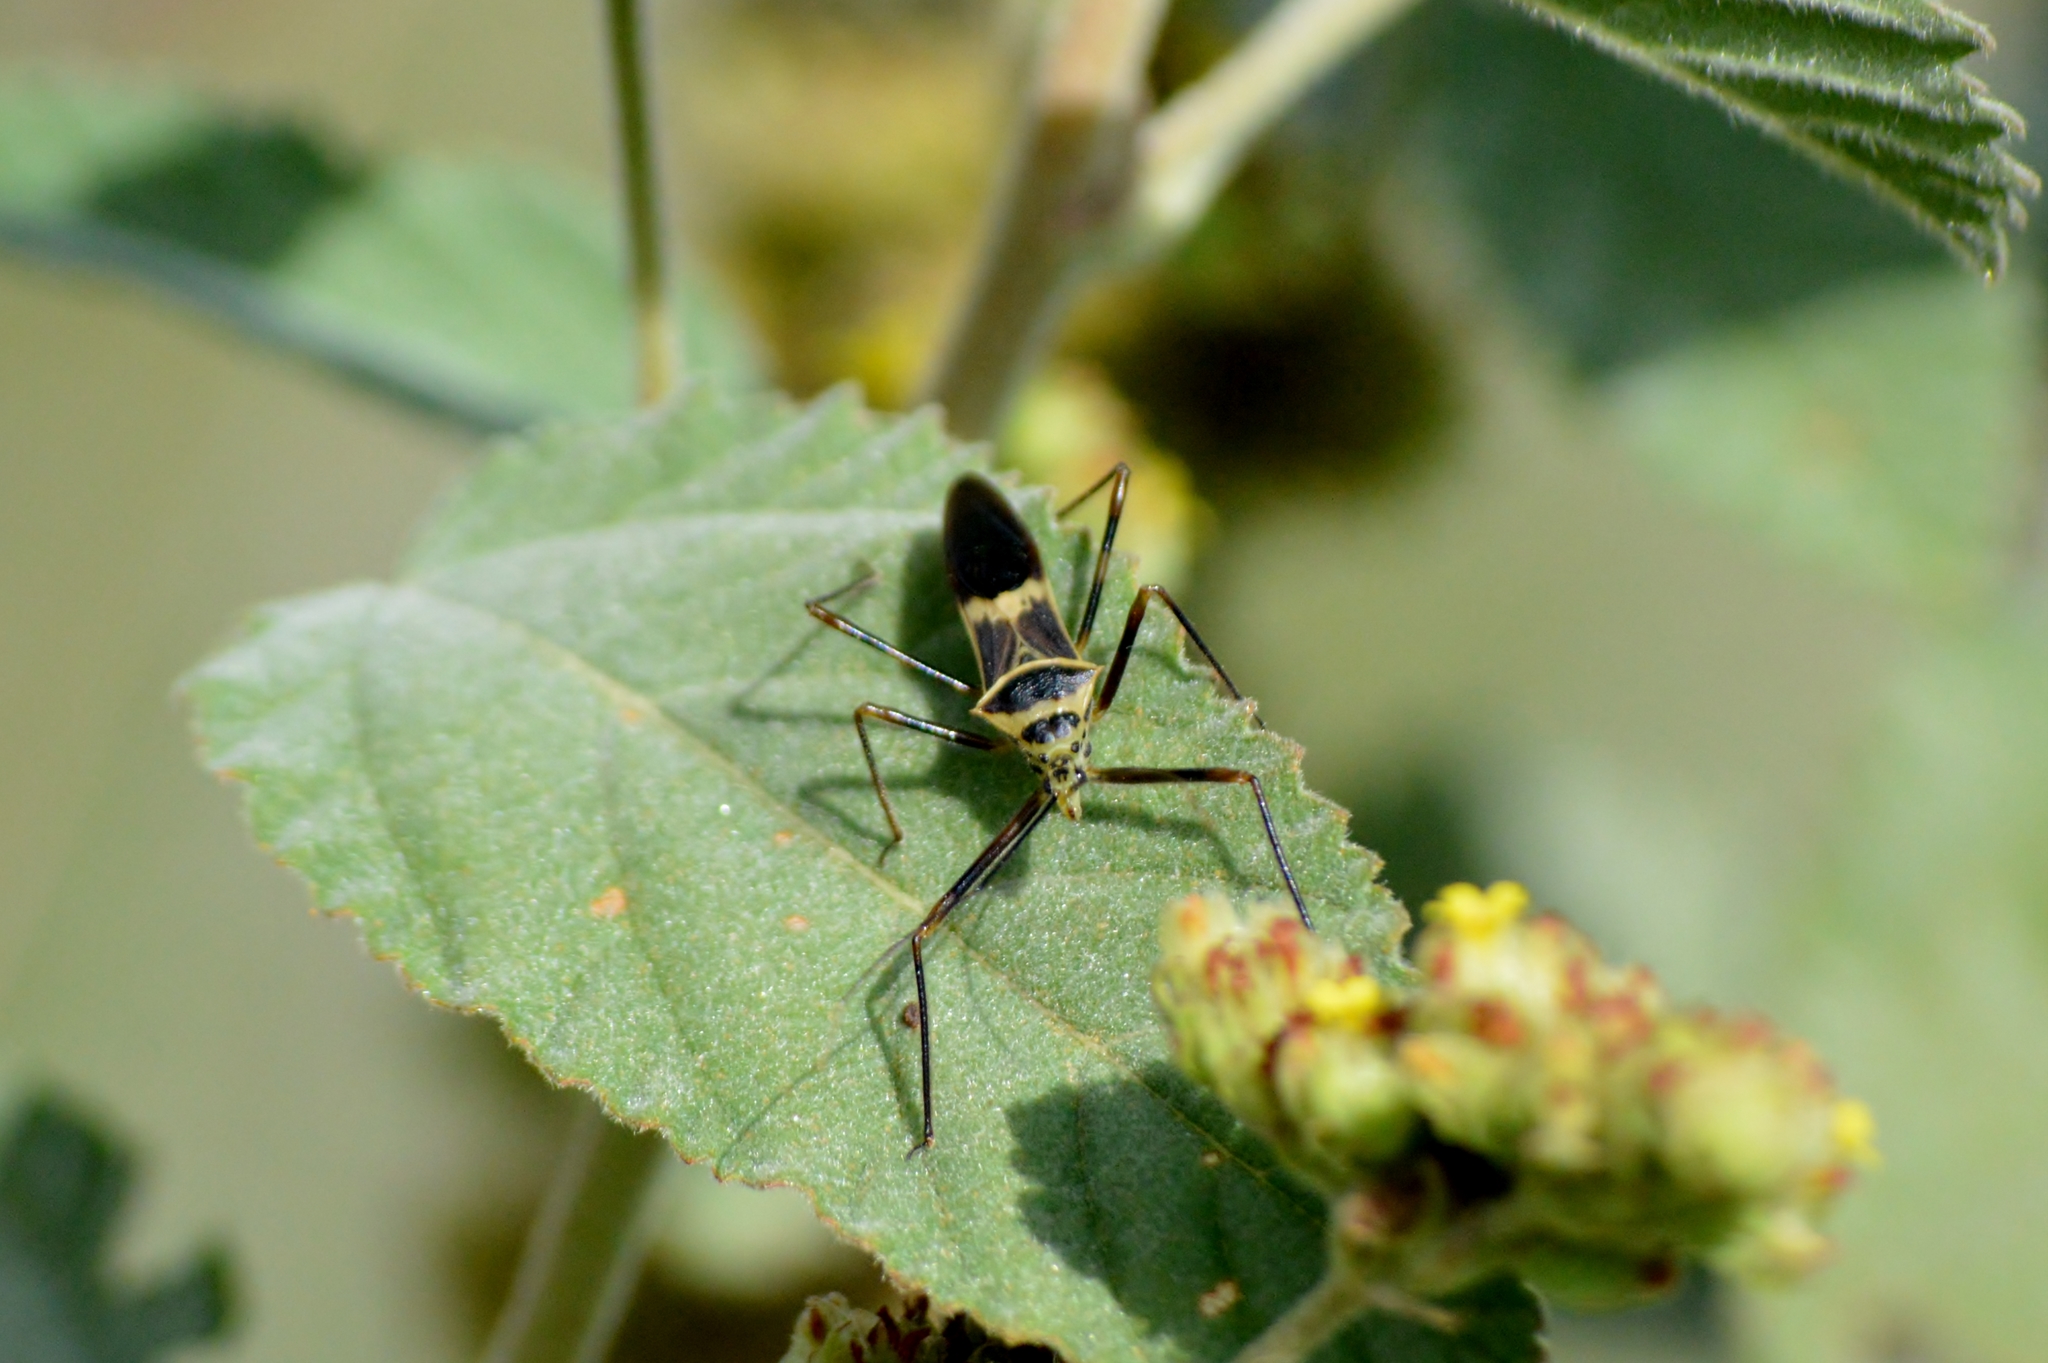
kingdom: Animalia
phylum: Arthropoda
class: Insecta
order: Hemiptera
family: Reduviidae
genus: Zelus
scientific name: Zelus armillatus
